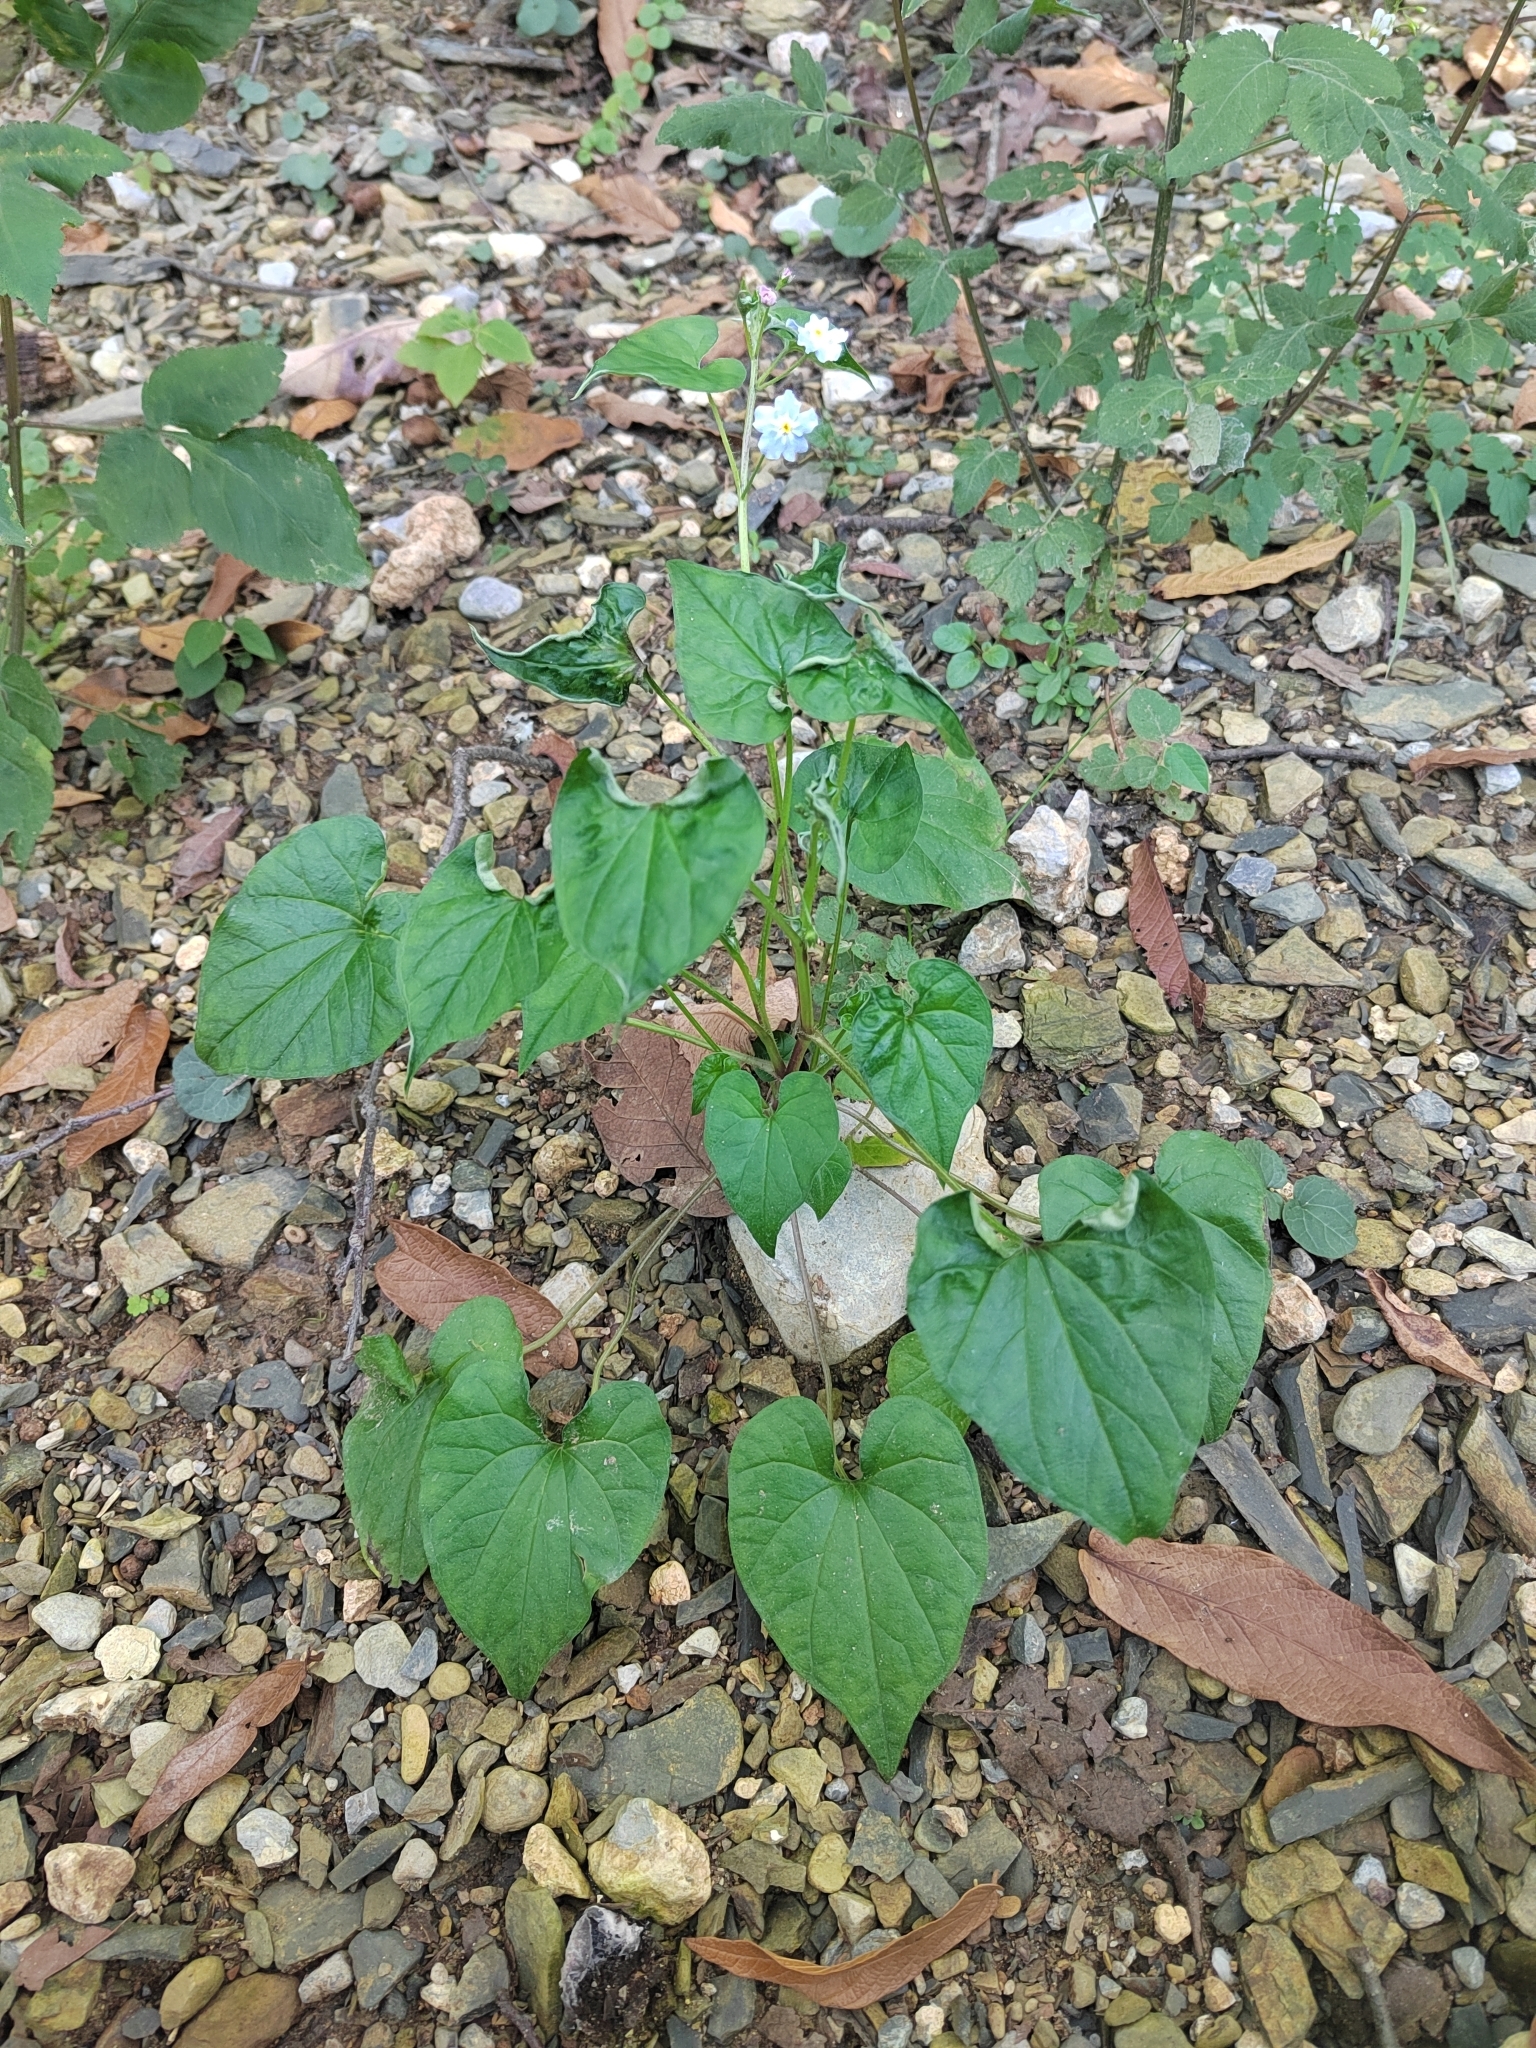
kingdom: Plantae
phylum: Tracheophyta
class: Magnoliopsida
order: Boraginales
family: Boraginaceae
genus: Mimophytum
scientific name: Mimophytum cardiophyllum
